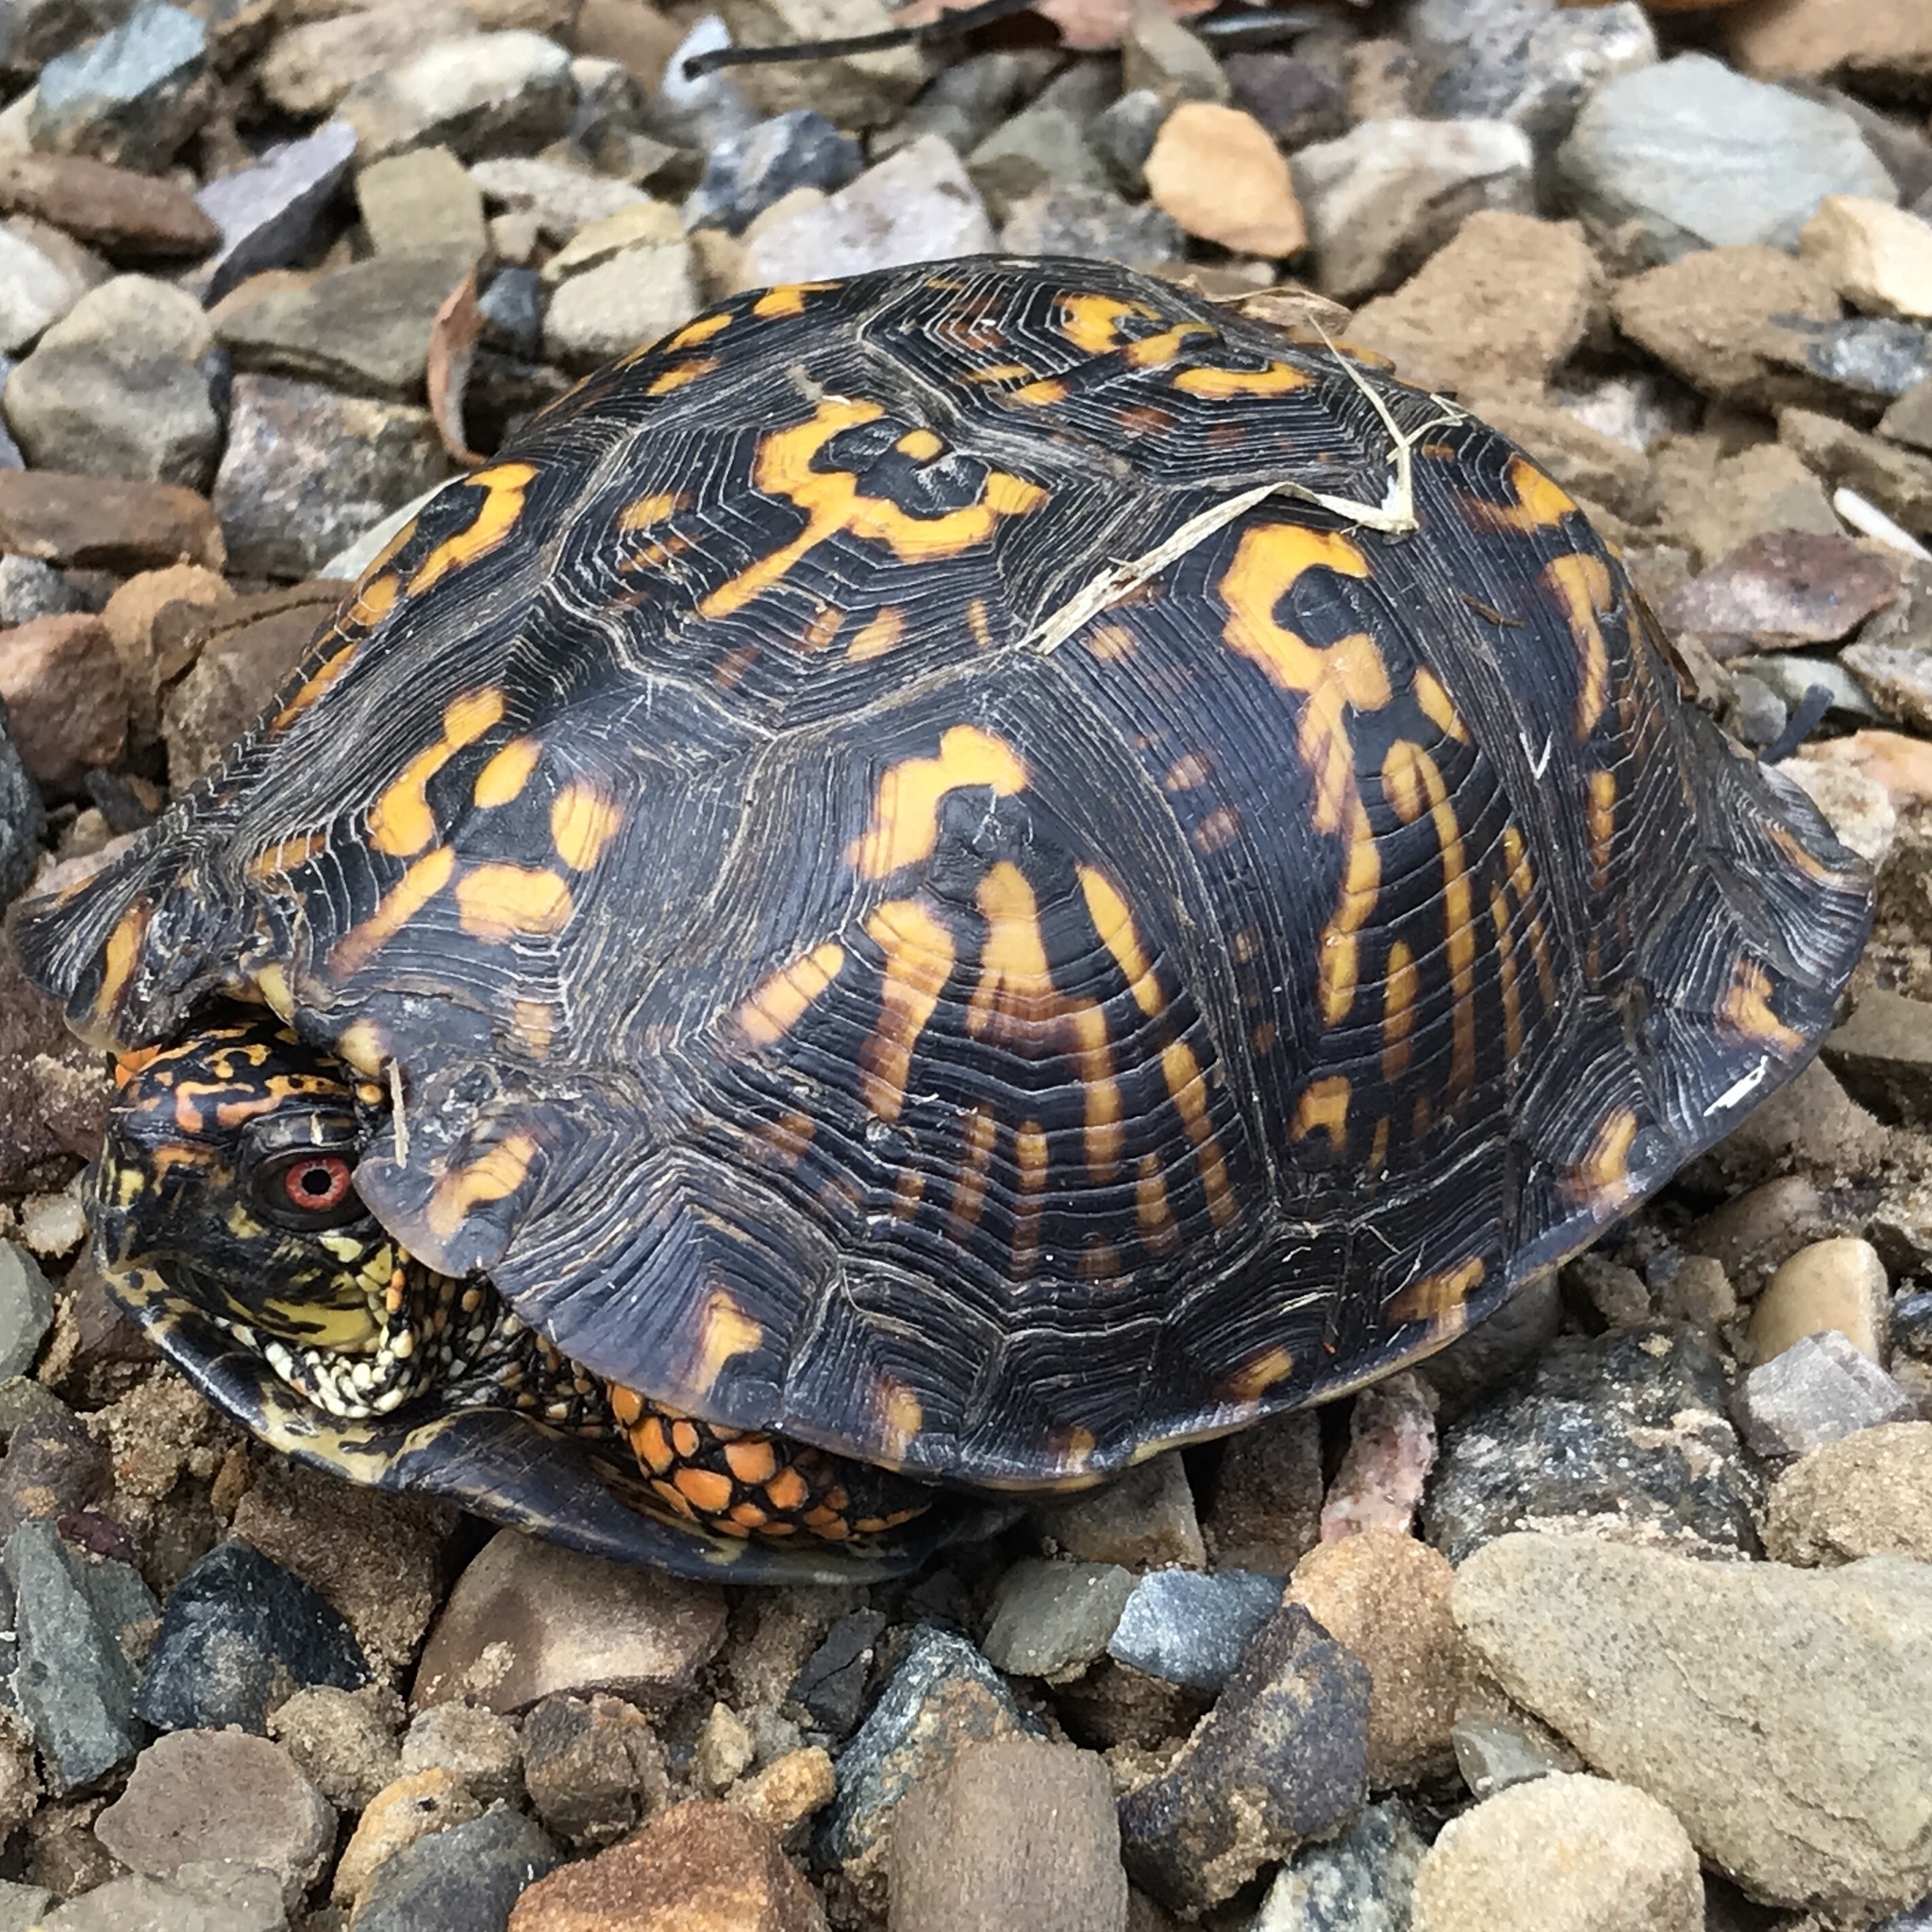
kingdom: Animalia
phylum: Chordata
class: Testudines
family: Emydidae
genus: Terrapene
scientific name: Terrapene carolina
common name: Common box turtle
